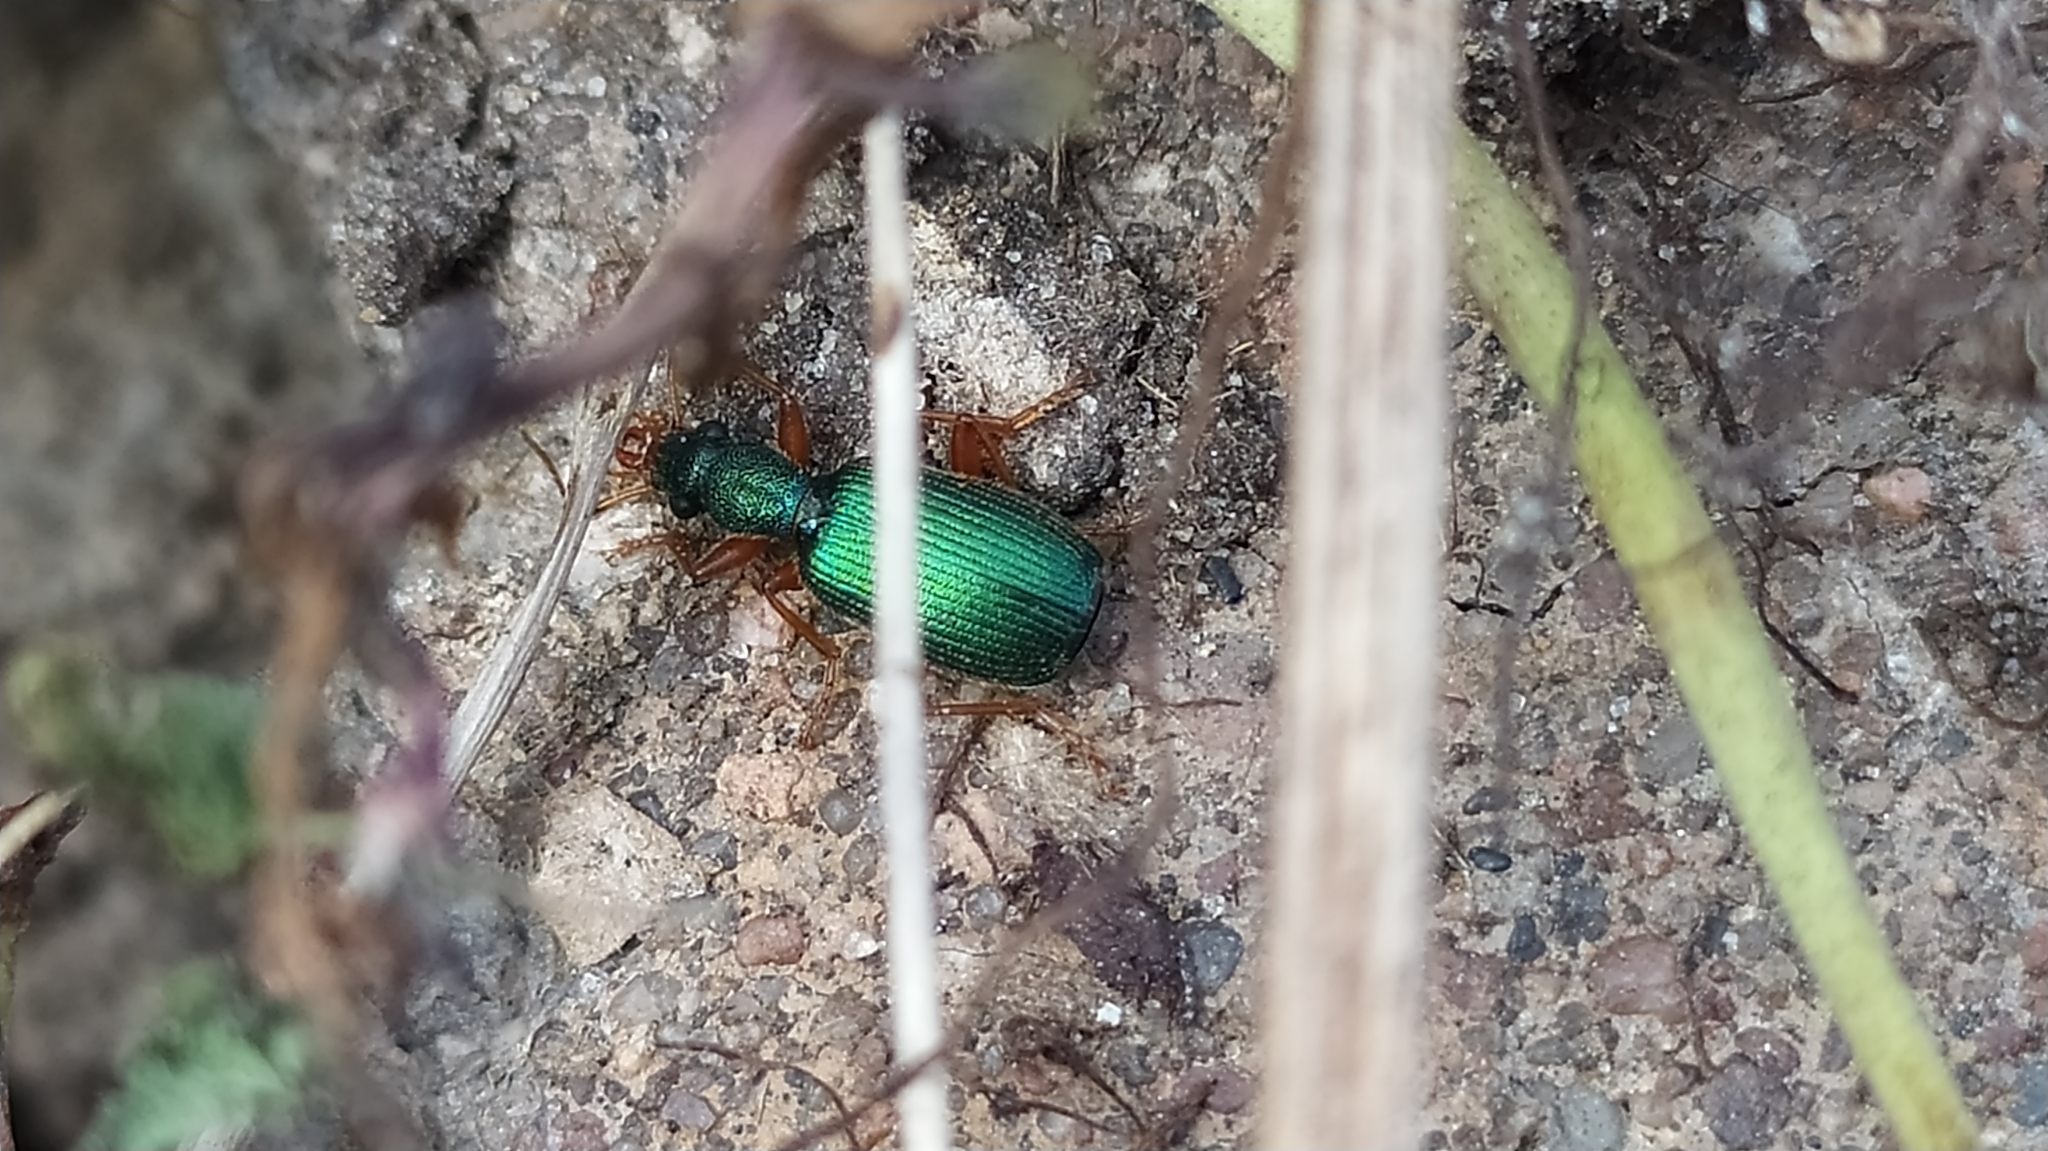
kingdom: Animalia
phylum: Arthropoda
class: Insecta
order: Coleoptera
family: Carabidae
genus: Drypta
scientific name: Drypta dentata
